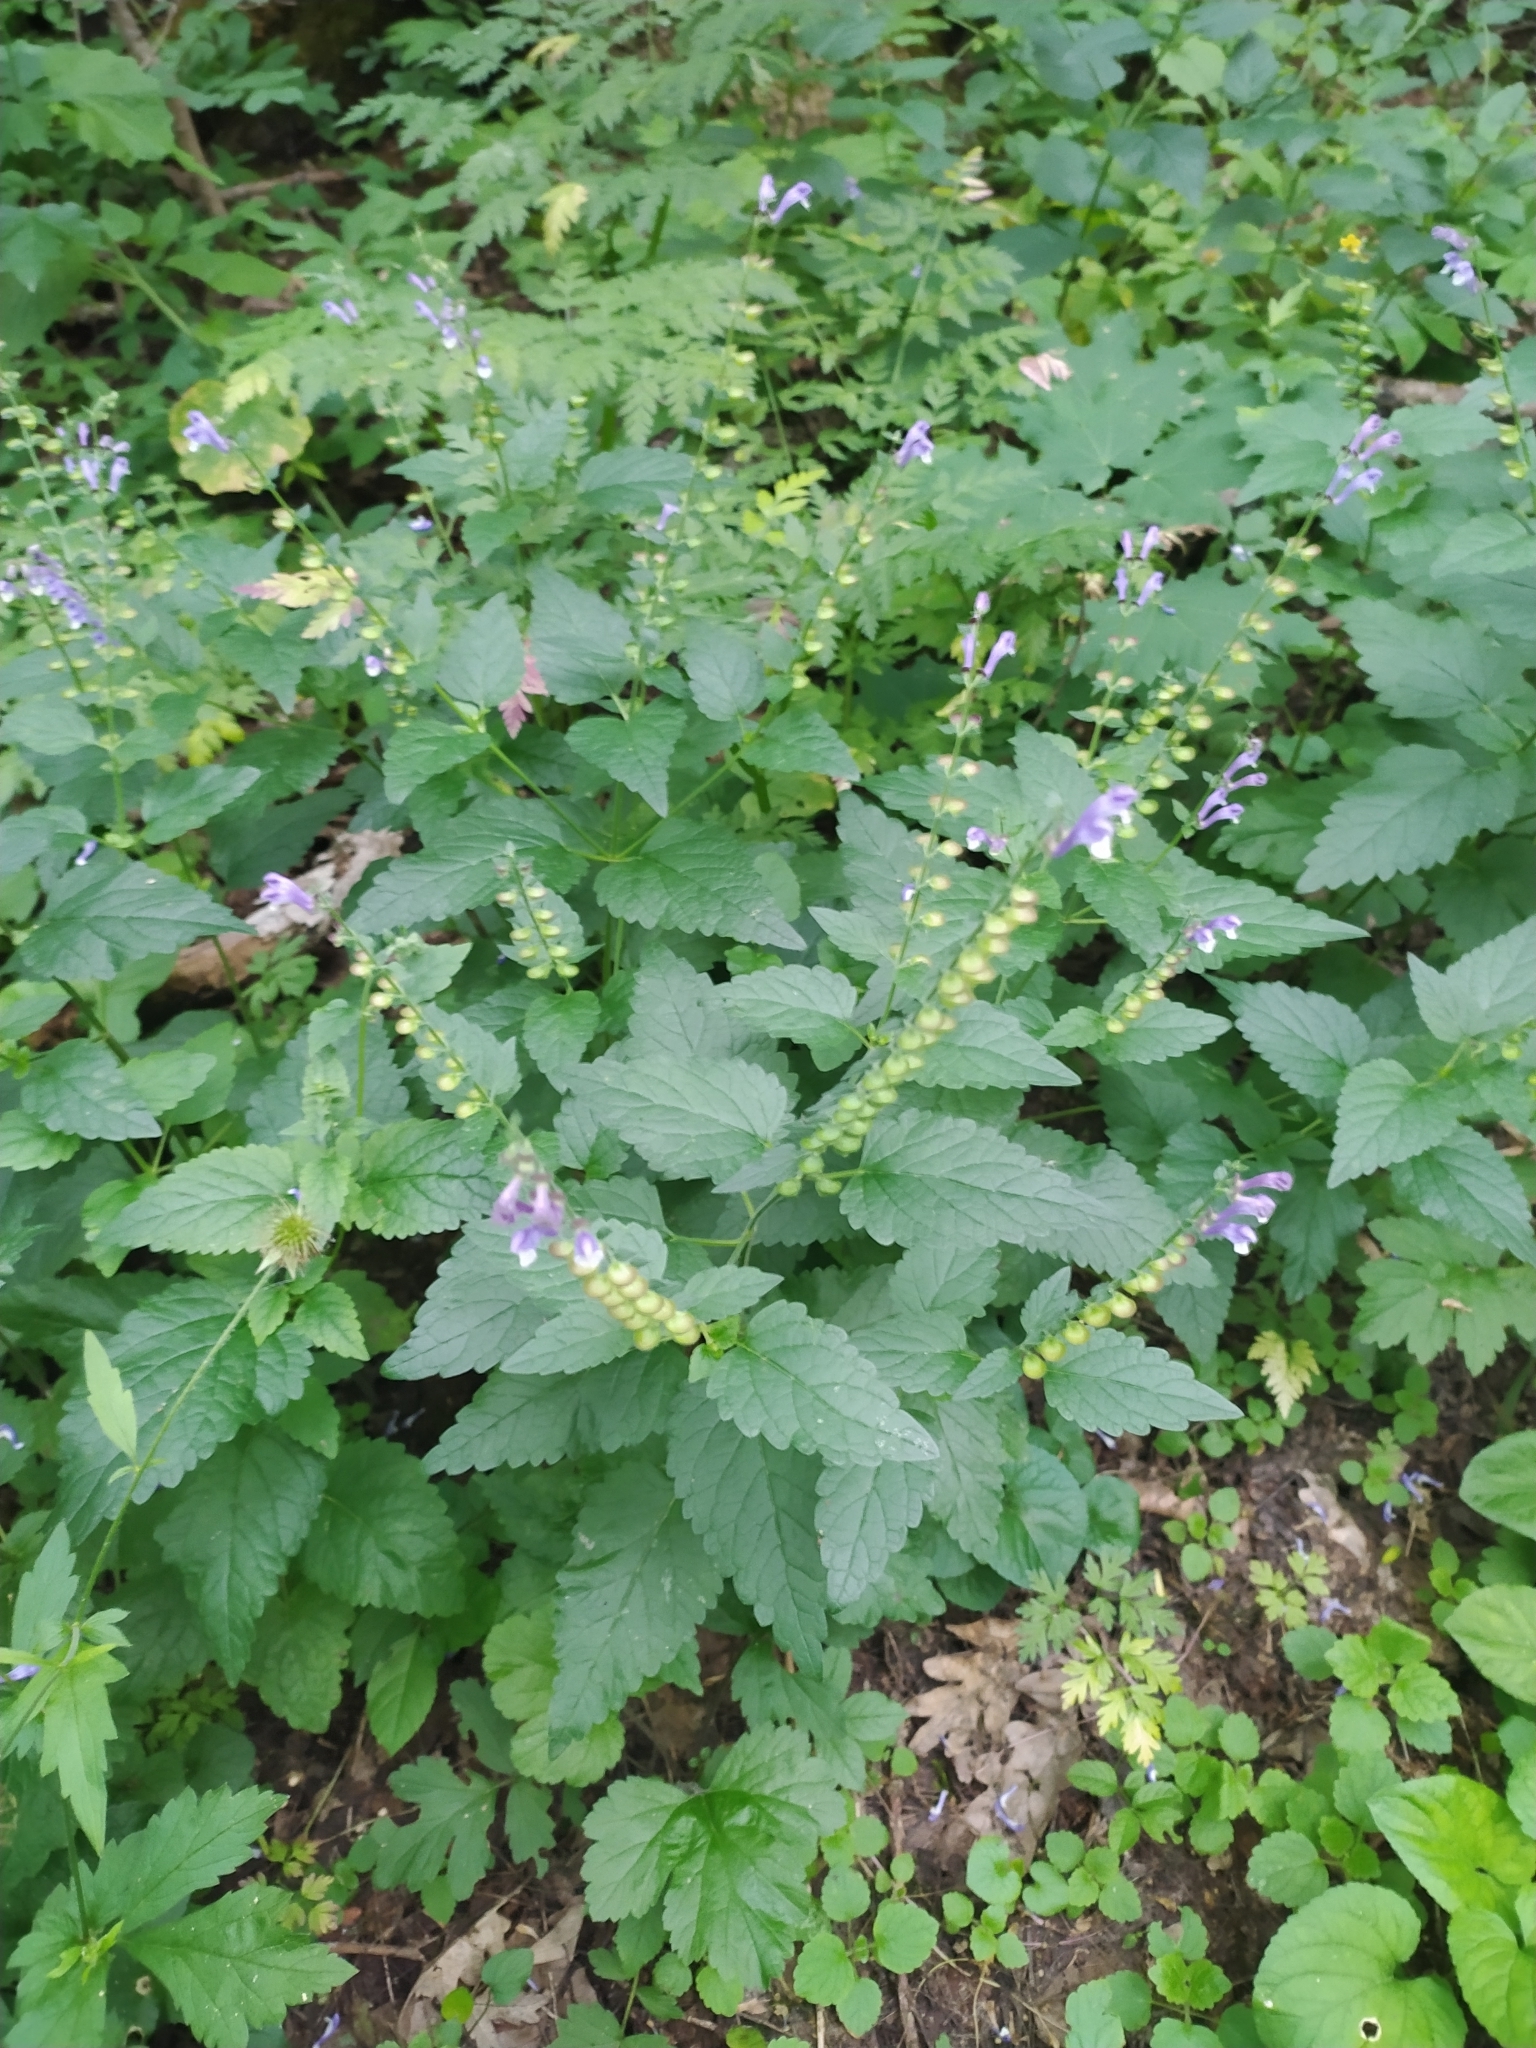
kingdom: Plantae
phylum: Tracheophyta
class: Magnoliopsida
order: Lamiales
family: Lamiaceae
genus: Scutellaria
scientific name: Scutellaria altissima
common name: Somerset skullcap
